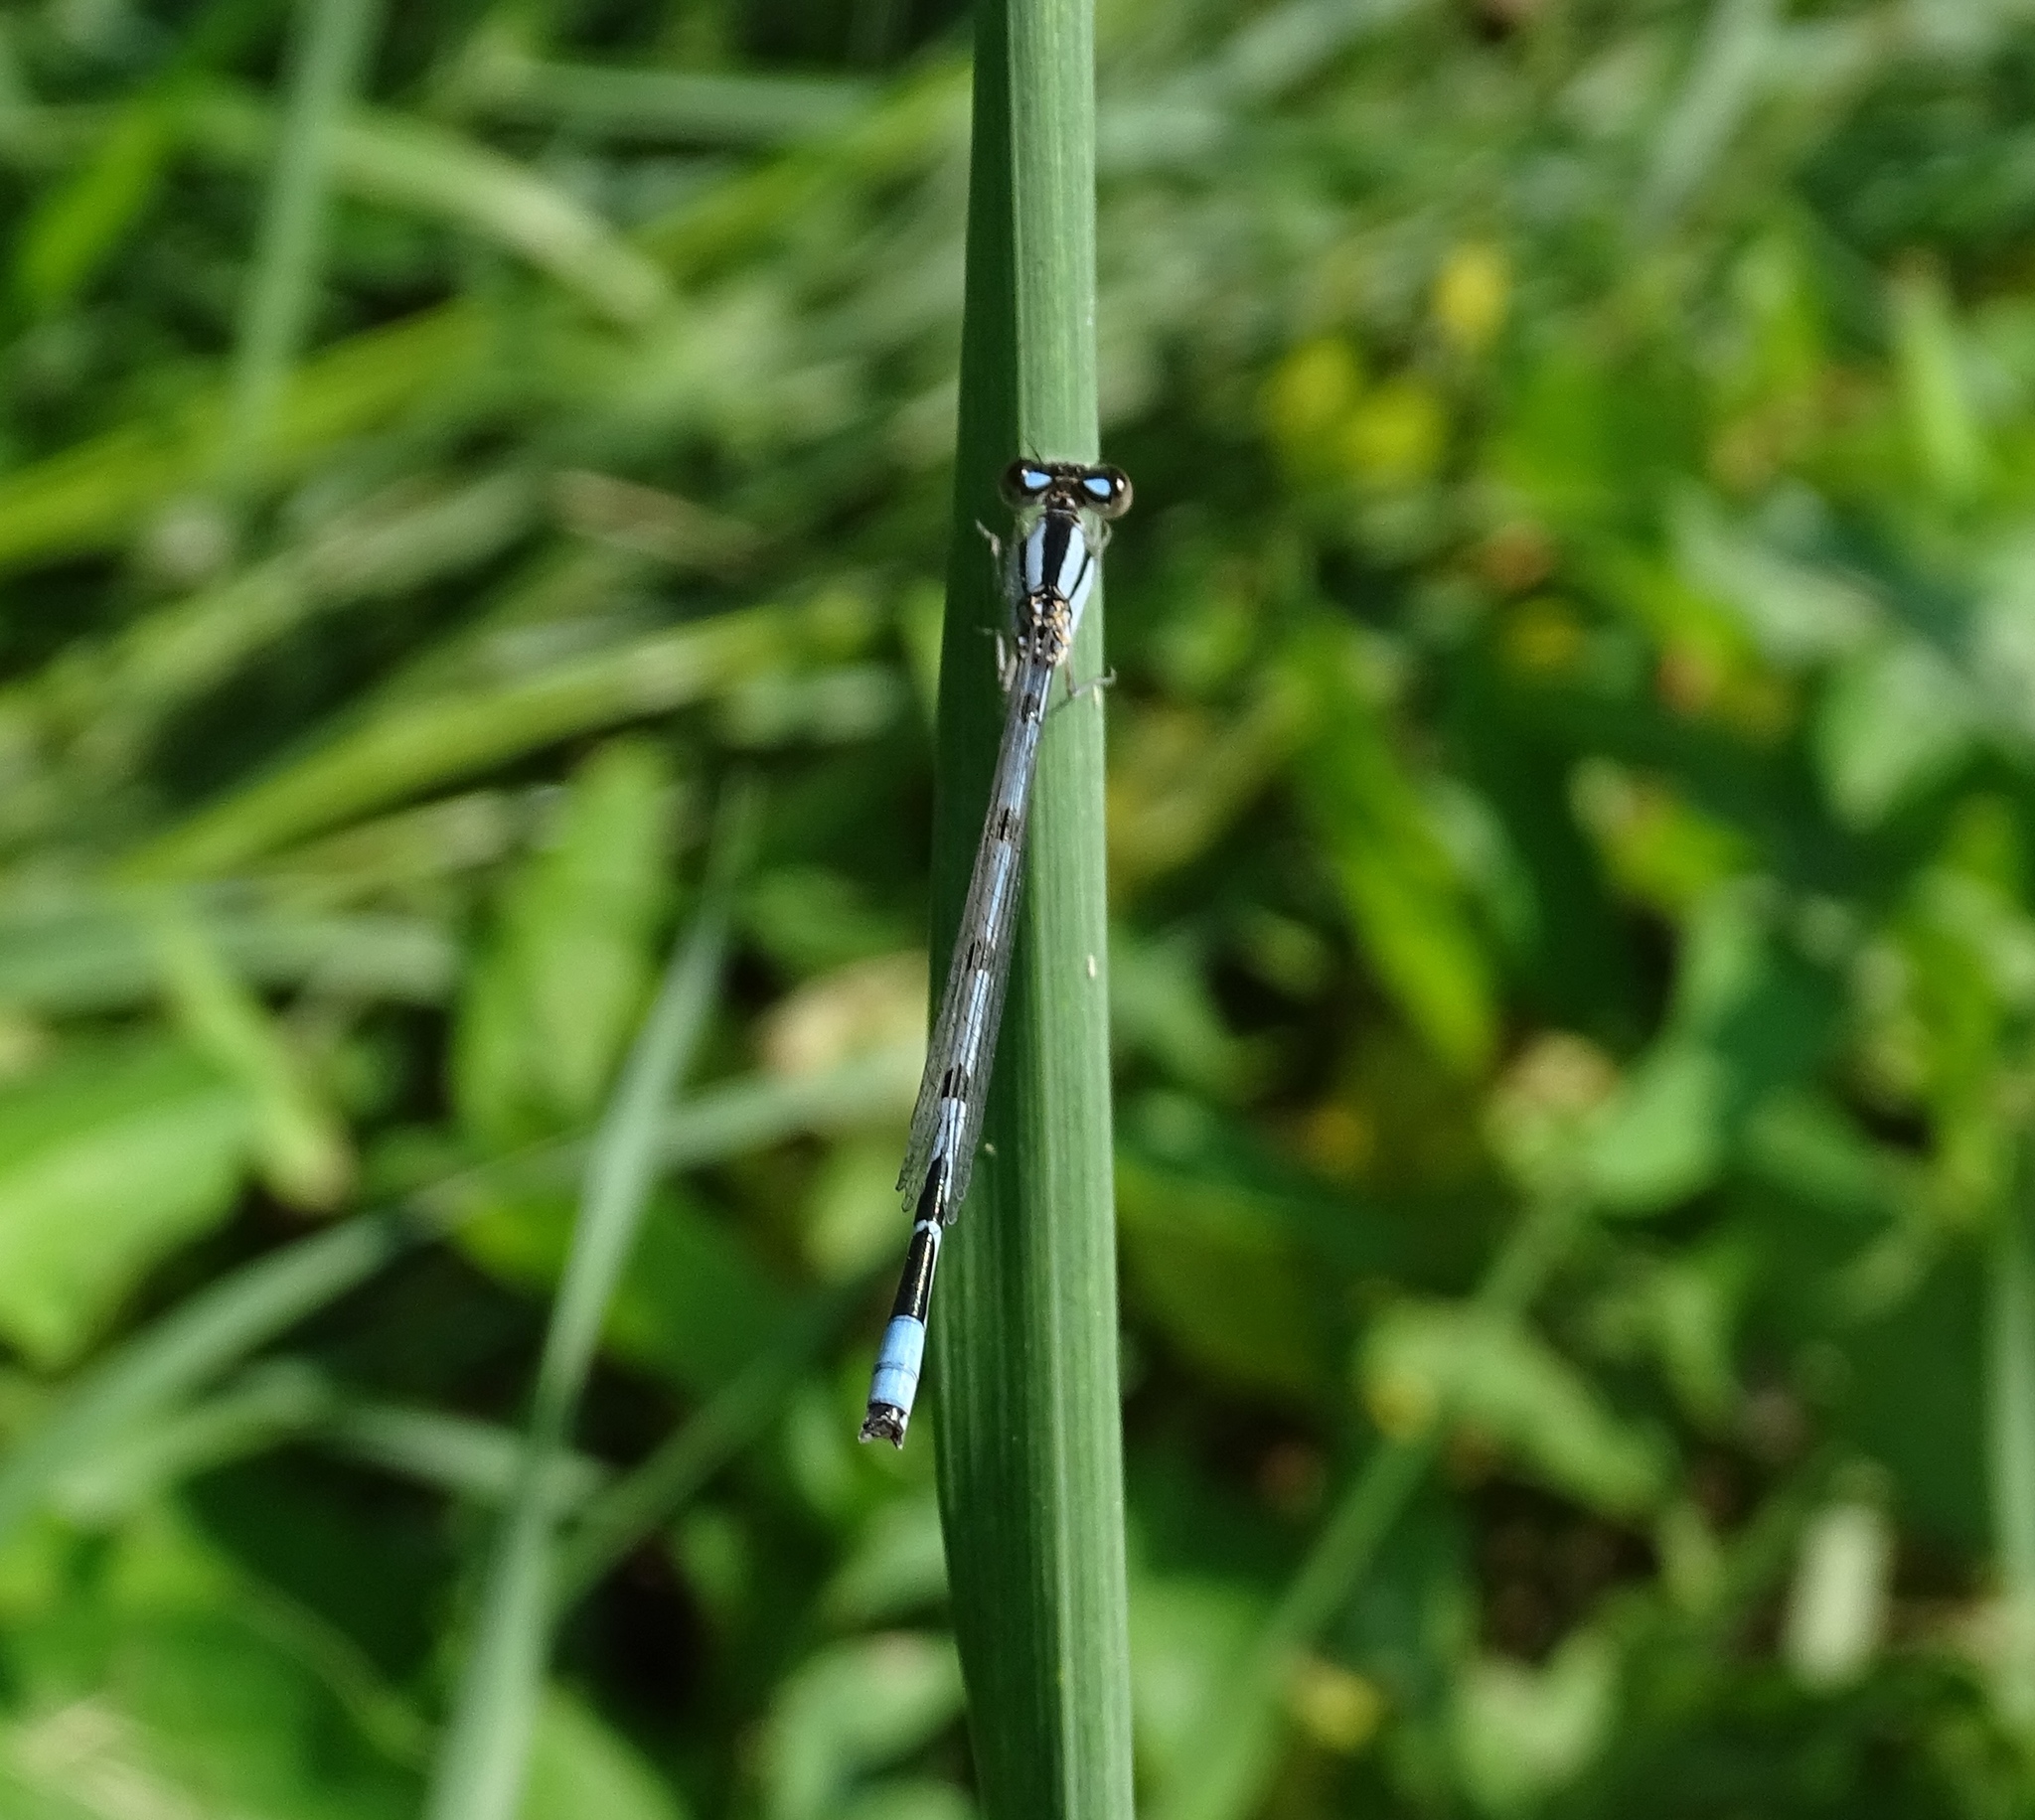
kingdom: Animalia
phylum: Arthropoda
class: Insecta
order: Odonata
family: Coenagrionidae
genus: Enallagma
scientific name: Enallagma civile
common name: Damselfly
